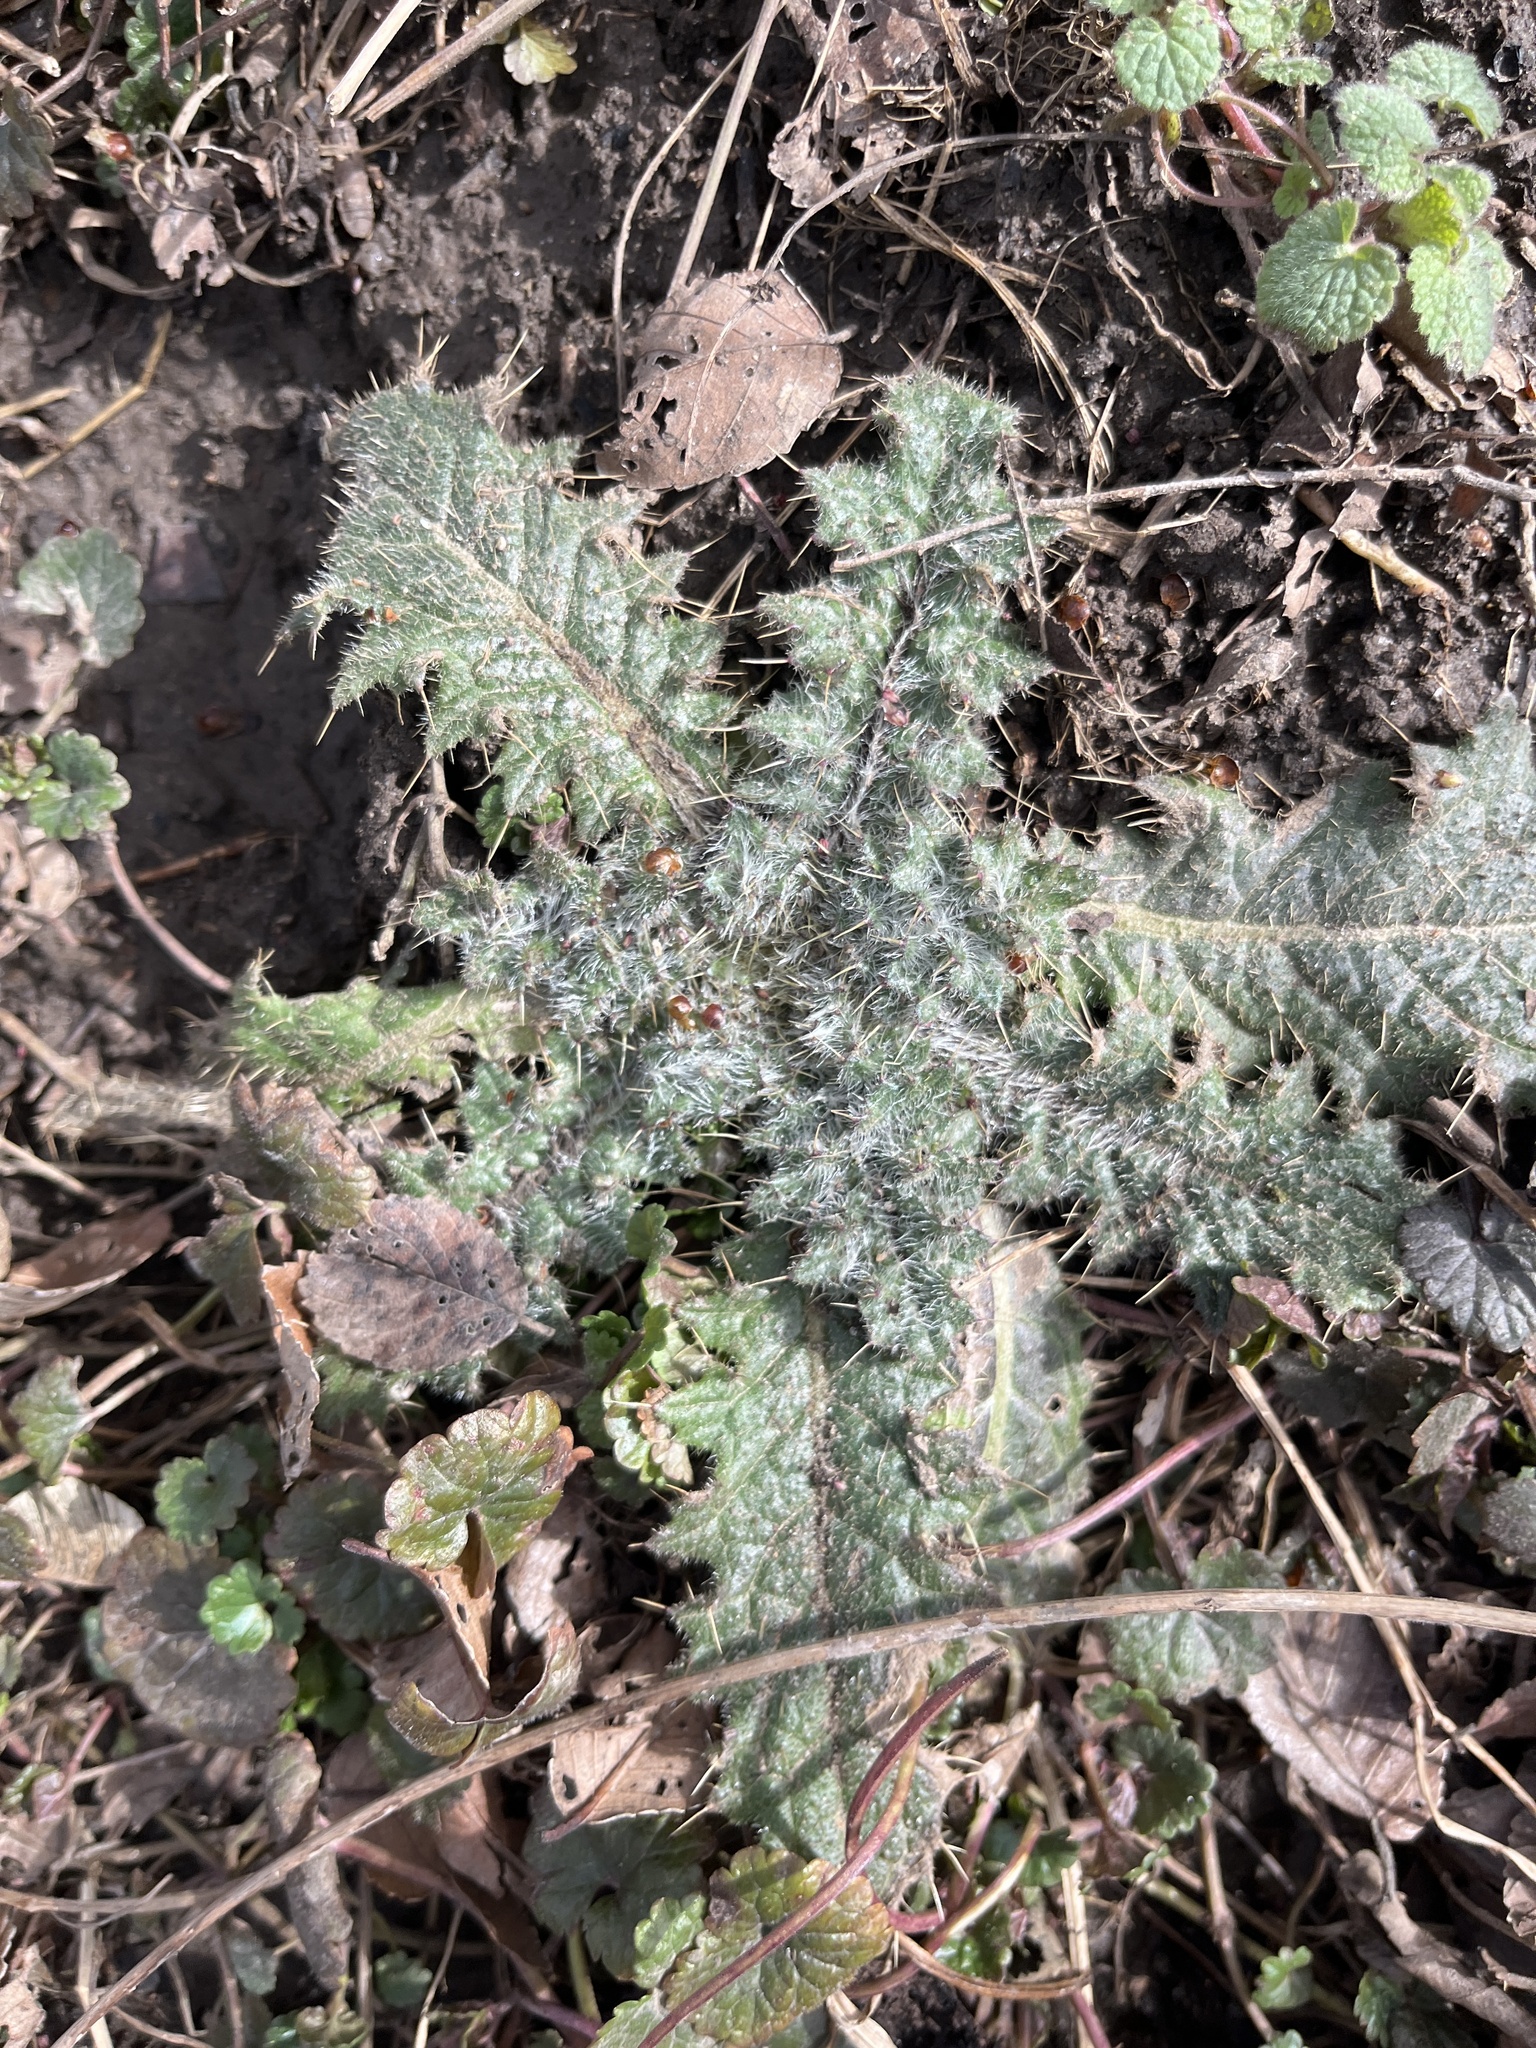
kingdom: Plantae
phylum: Tracheophyta
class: Magnoliopsida
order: Asterales
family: Asteraceae
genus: Cirsium
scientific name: Cirsium vulgare
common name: Bull thistle
